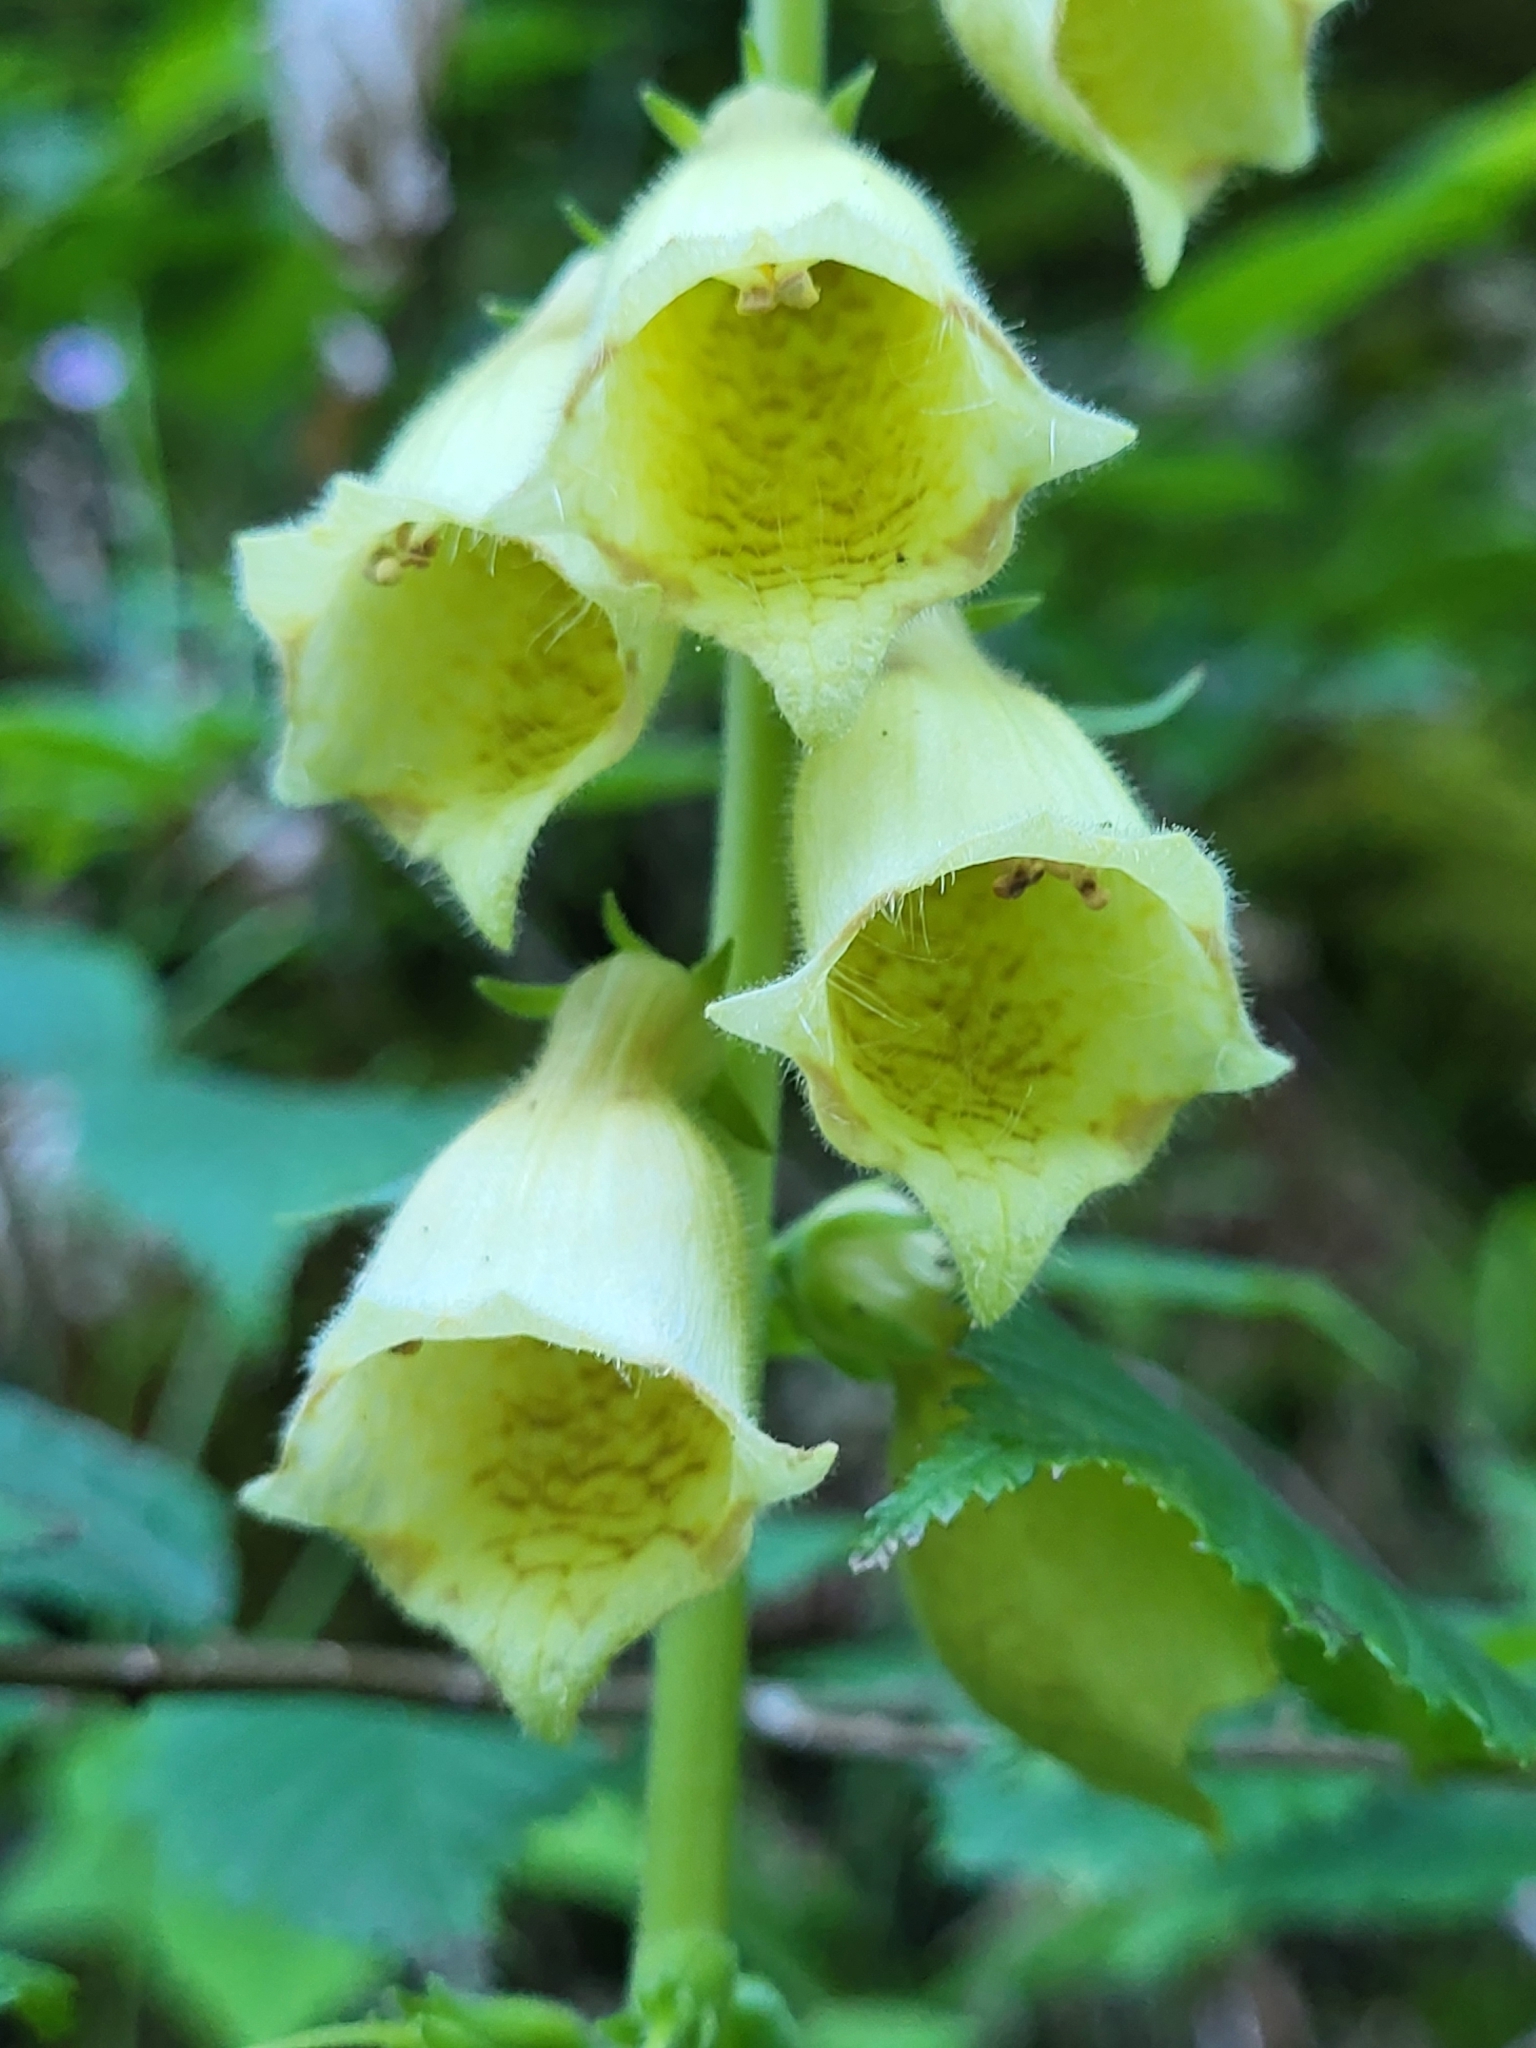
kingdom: Plantae
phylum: Tracheophyta
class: Magnoliopsida
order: Lamiales
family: Plantaginaceae
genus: Digitalis
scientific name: Digitalis grandiflora
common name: Yellow foxglove
